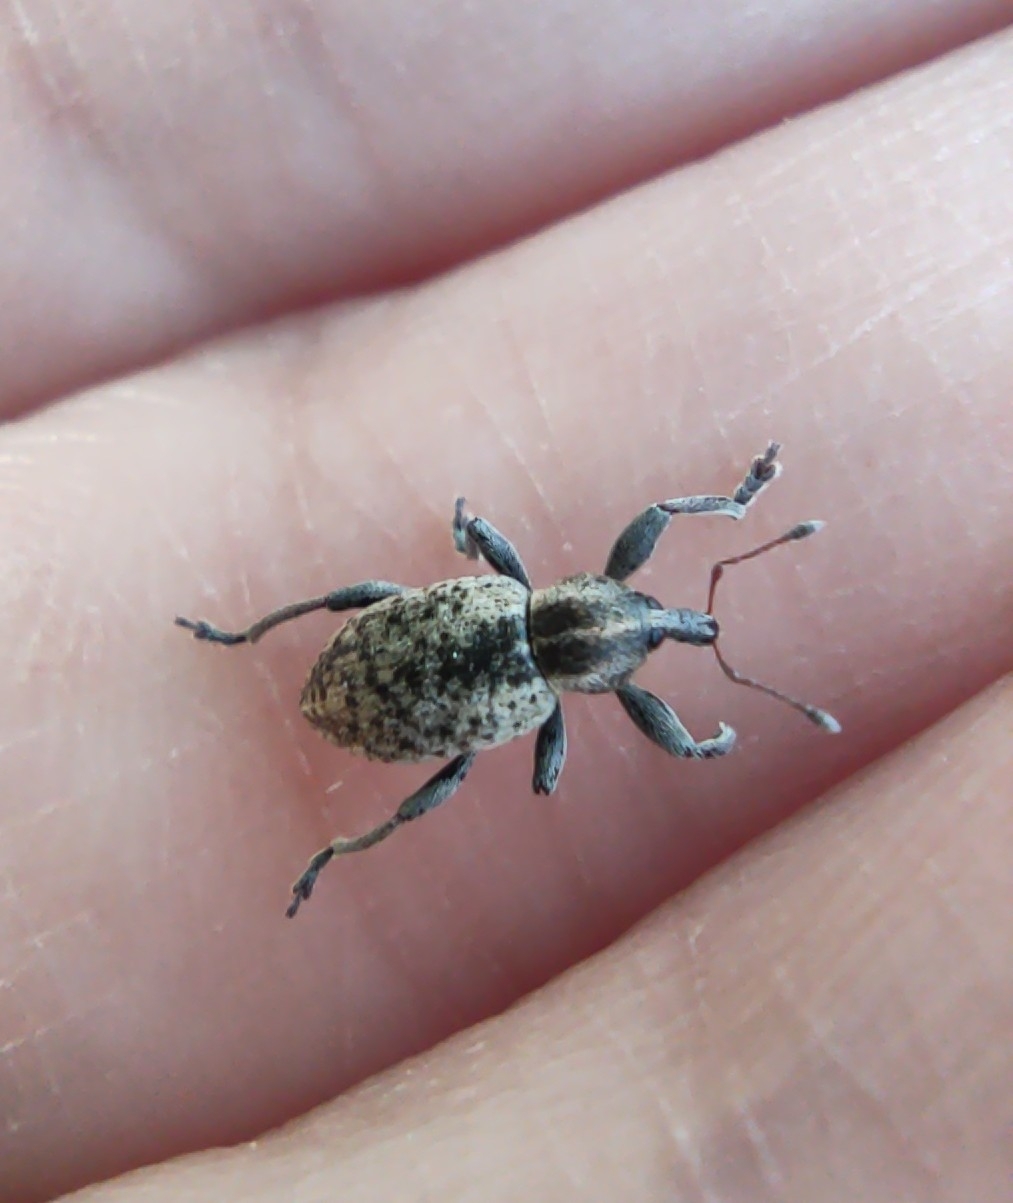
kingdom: Animalia
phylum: Arthropoda
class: Insecta
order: Coleoptera
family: Curculionidae
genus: Hypera
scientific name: Hypera miles
